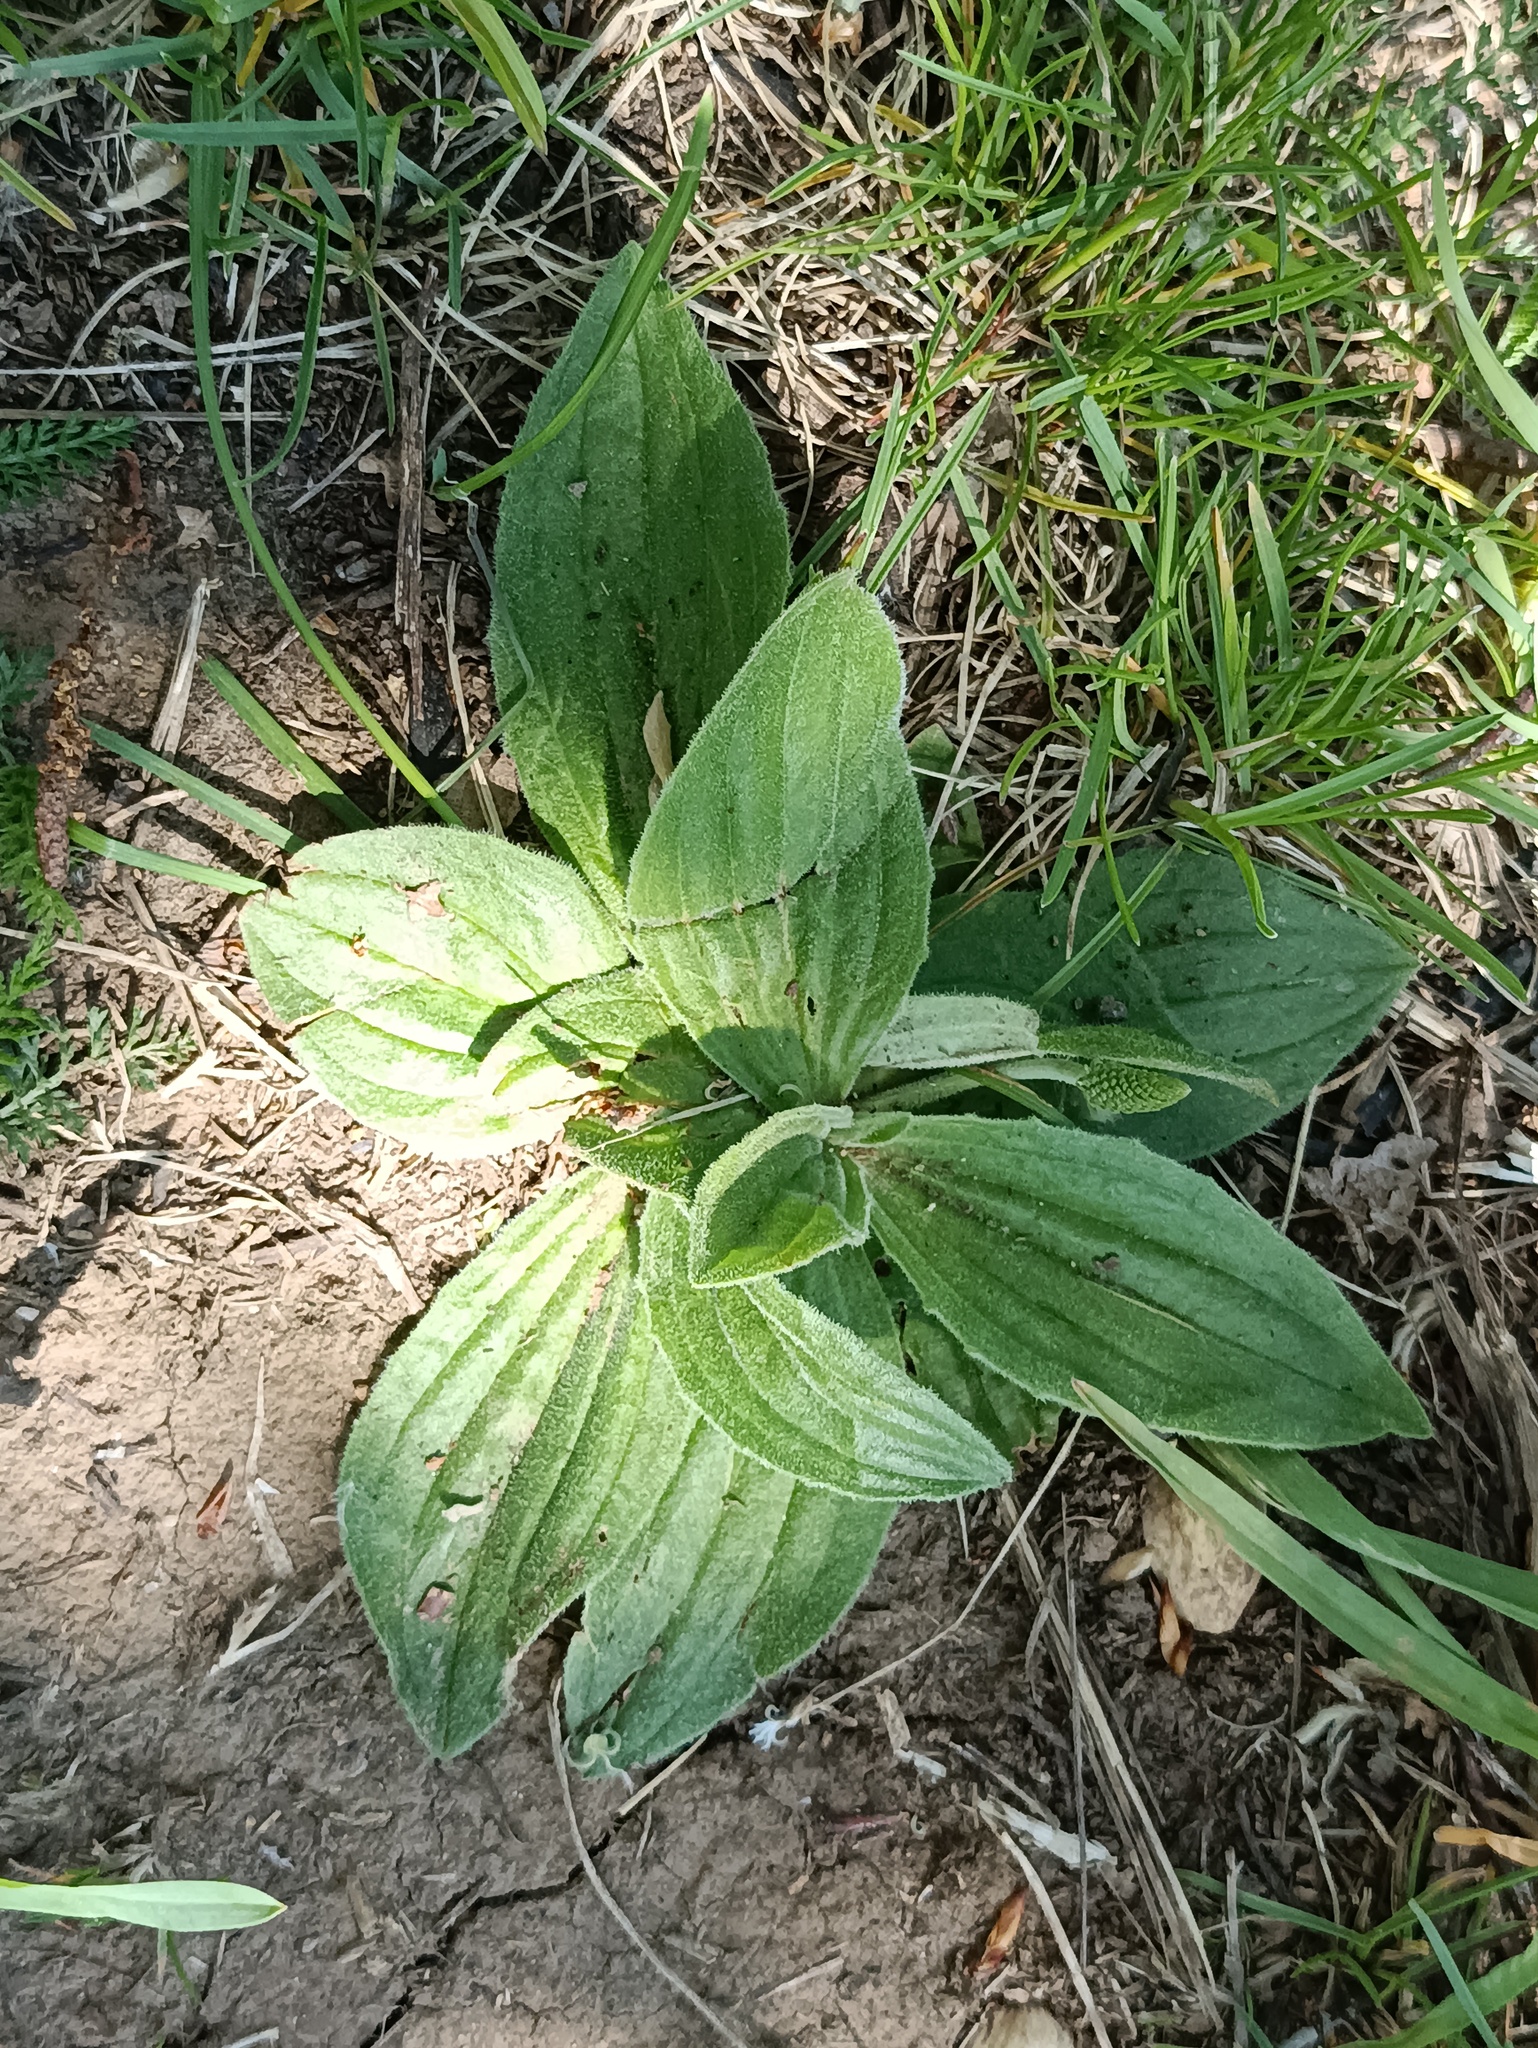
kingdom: Plantae
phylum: Tracheophyta
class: Magnoliopsida
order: Lamiales
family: Plantaginaceae
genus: Plantago
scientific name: Plantago media
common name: Hoary plantain
